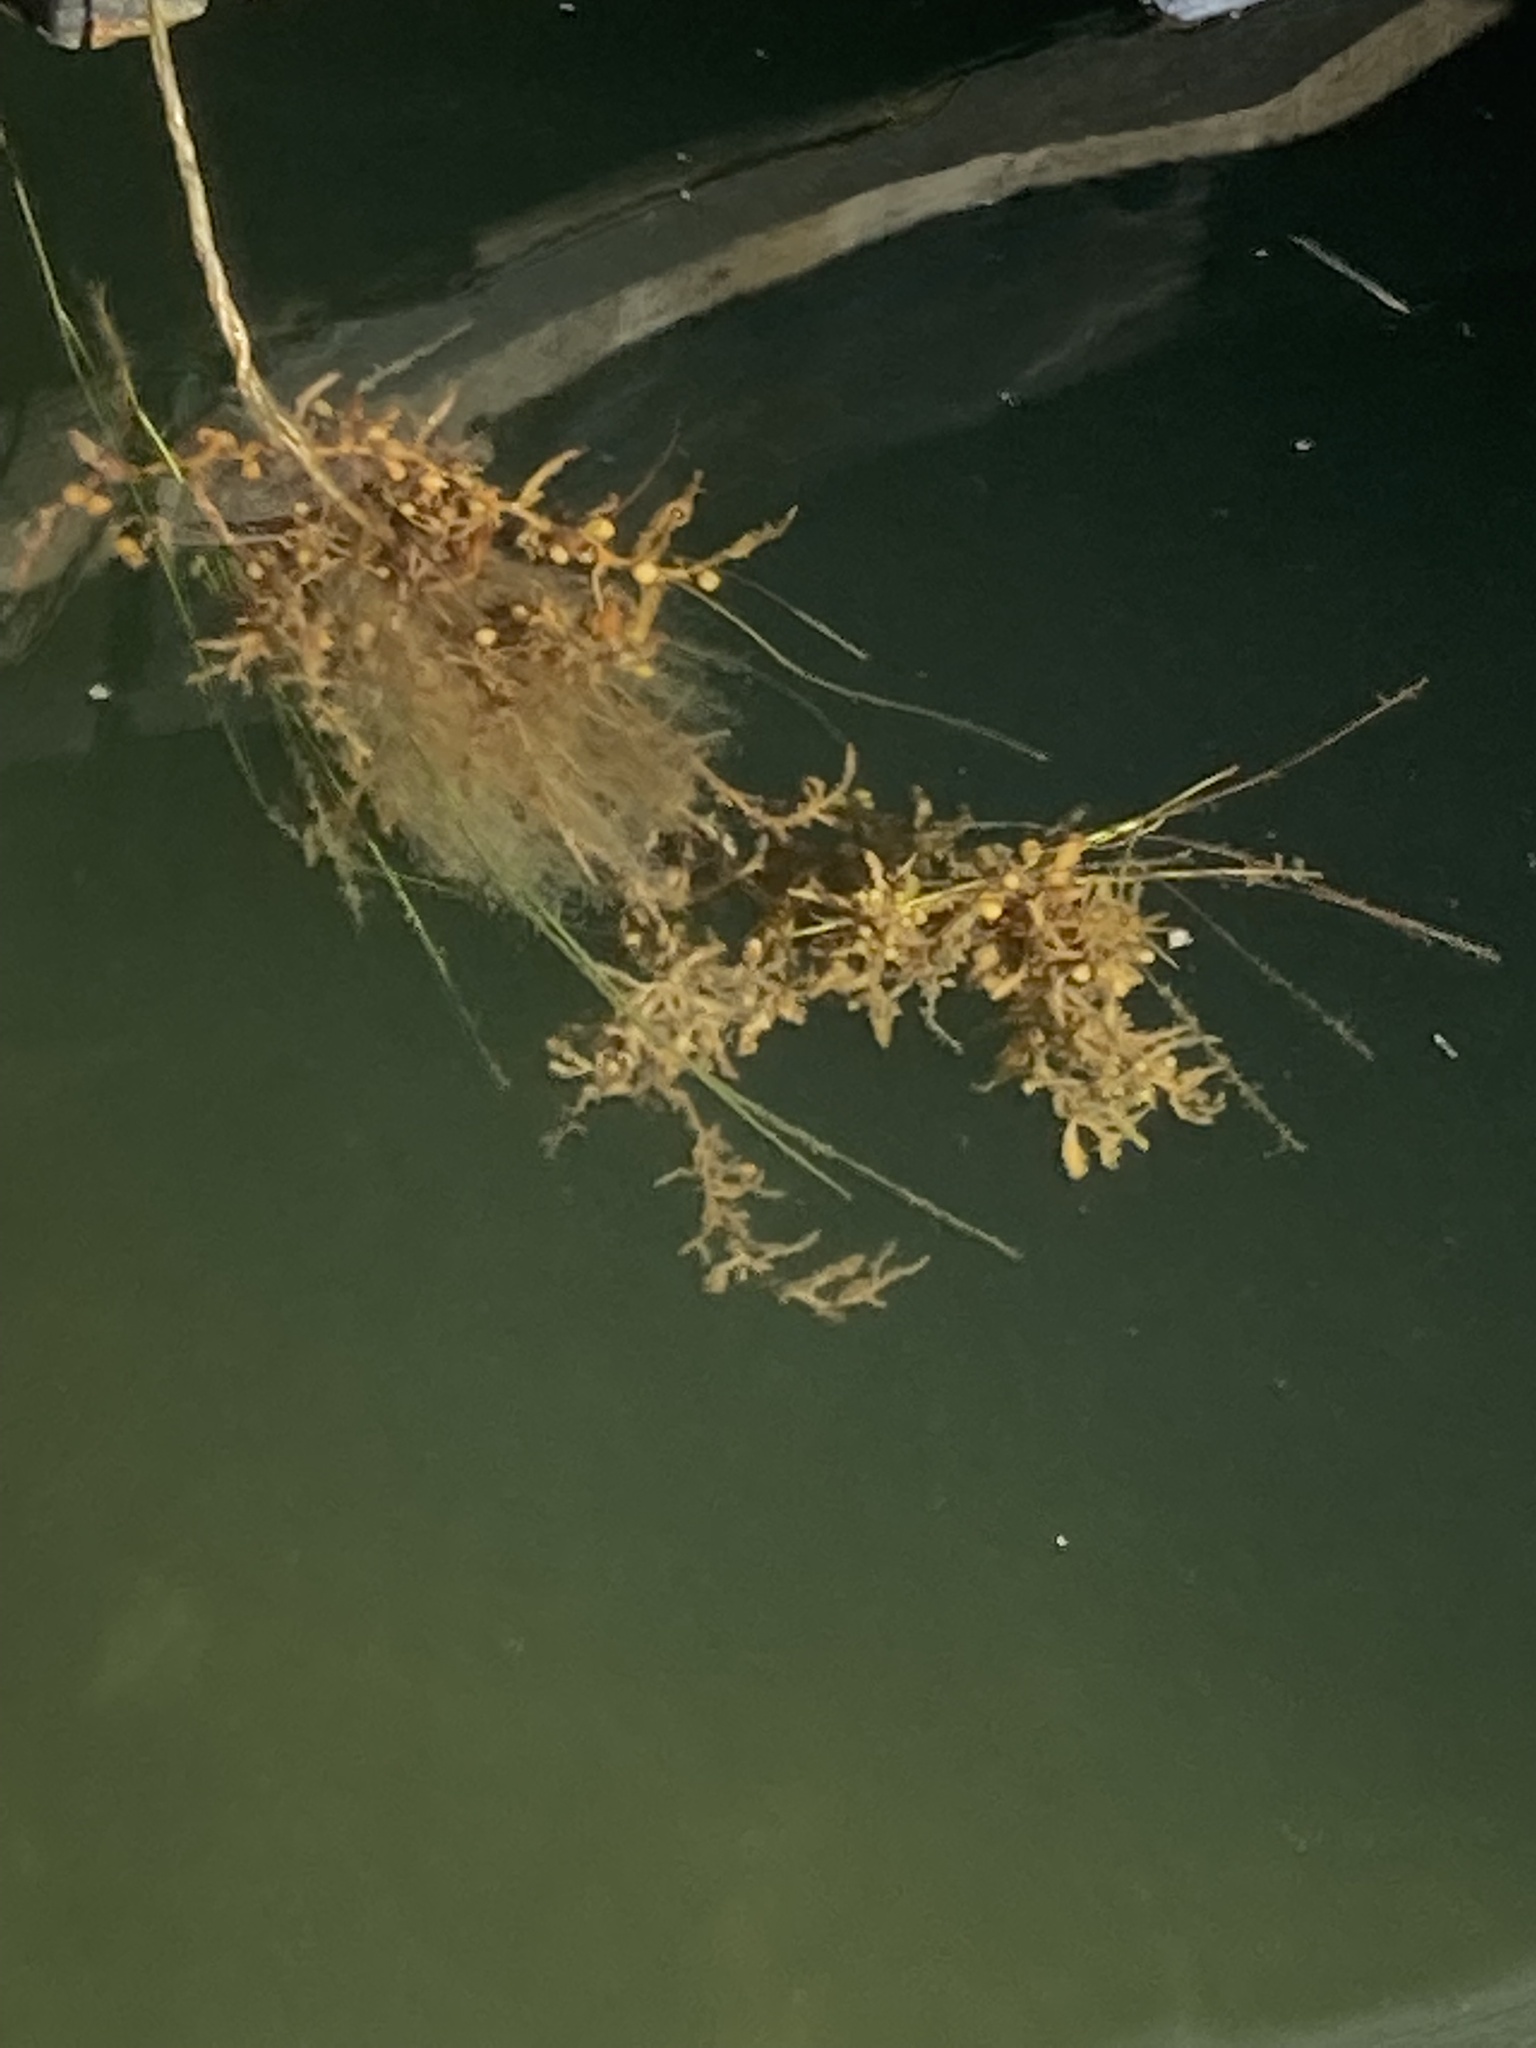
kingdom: Chromista
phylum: Ochrophyta
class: Phaeophyceae
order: Fucales
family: Sargassaceae
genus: Sargassum
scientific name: Sargassum fluitans
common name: Sargassum seaweed
